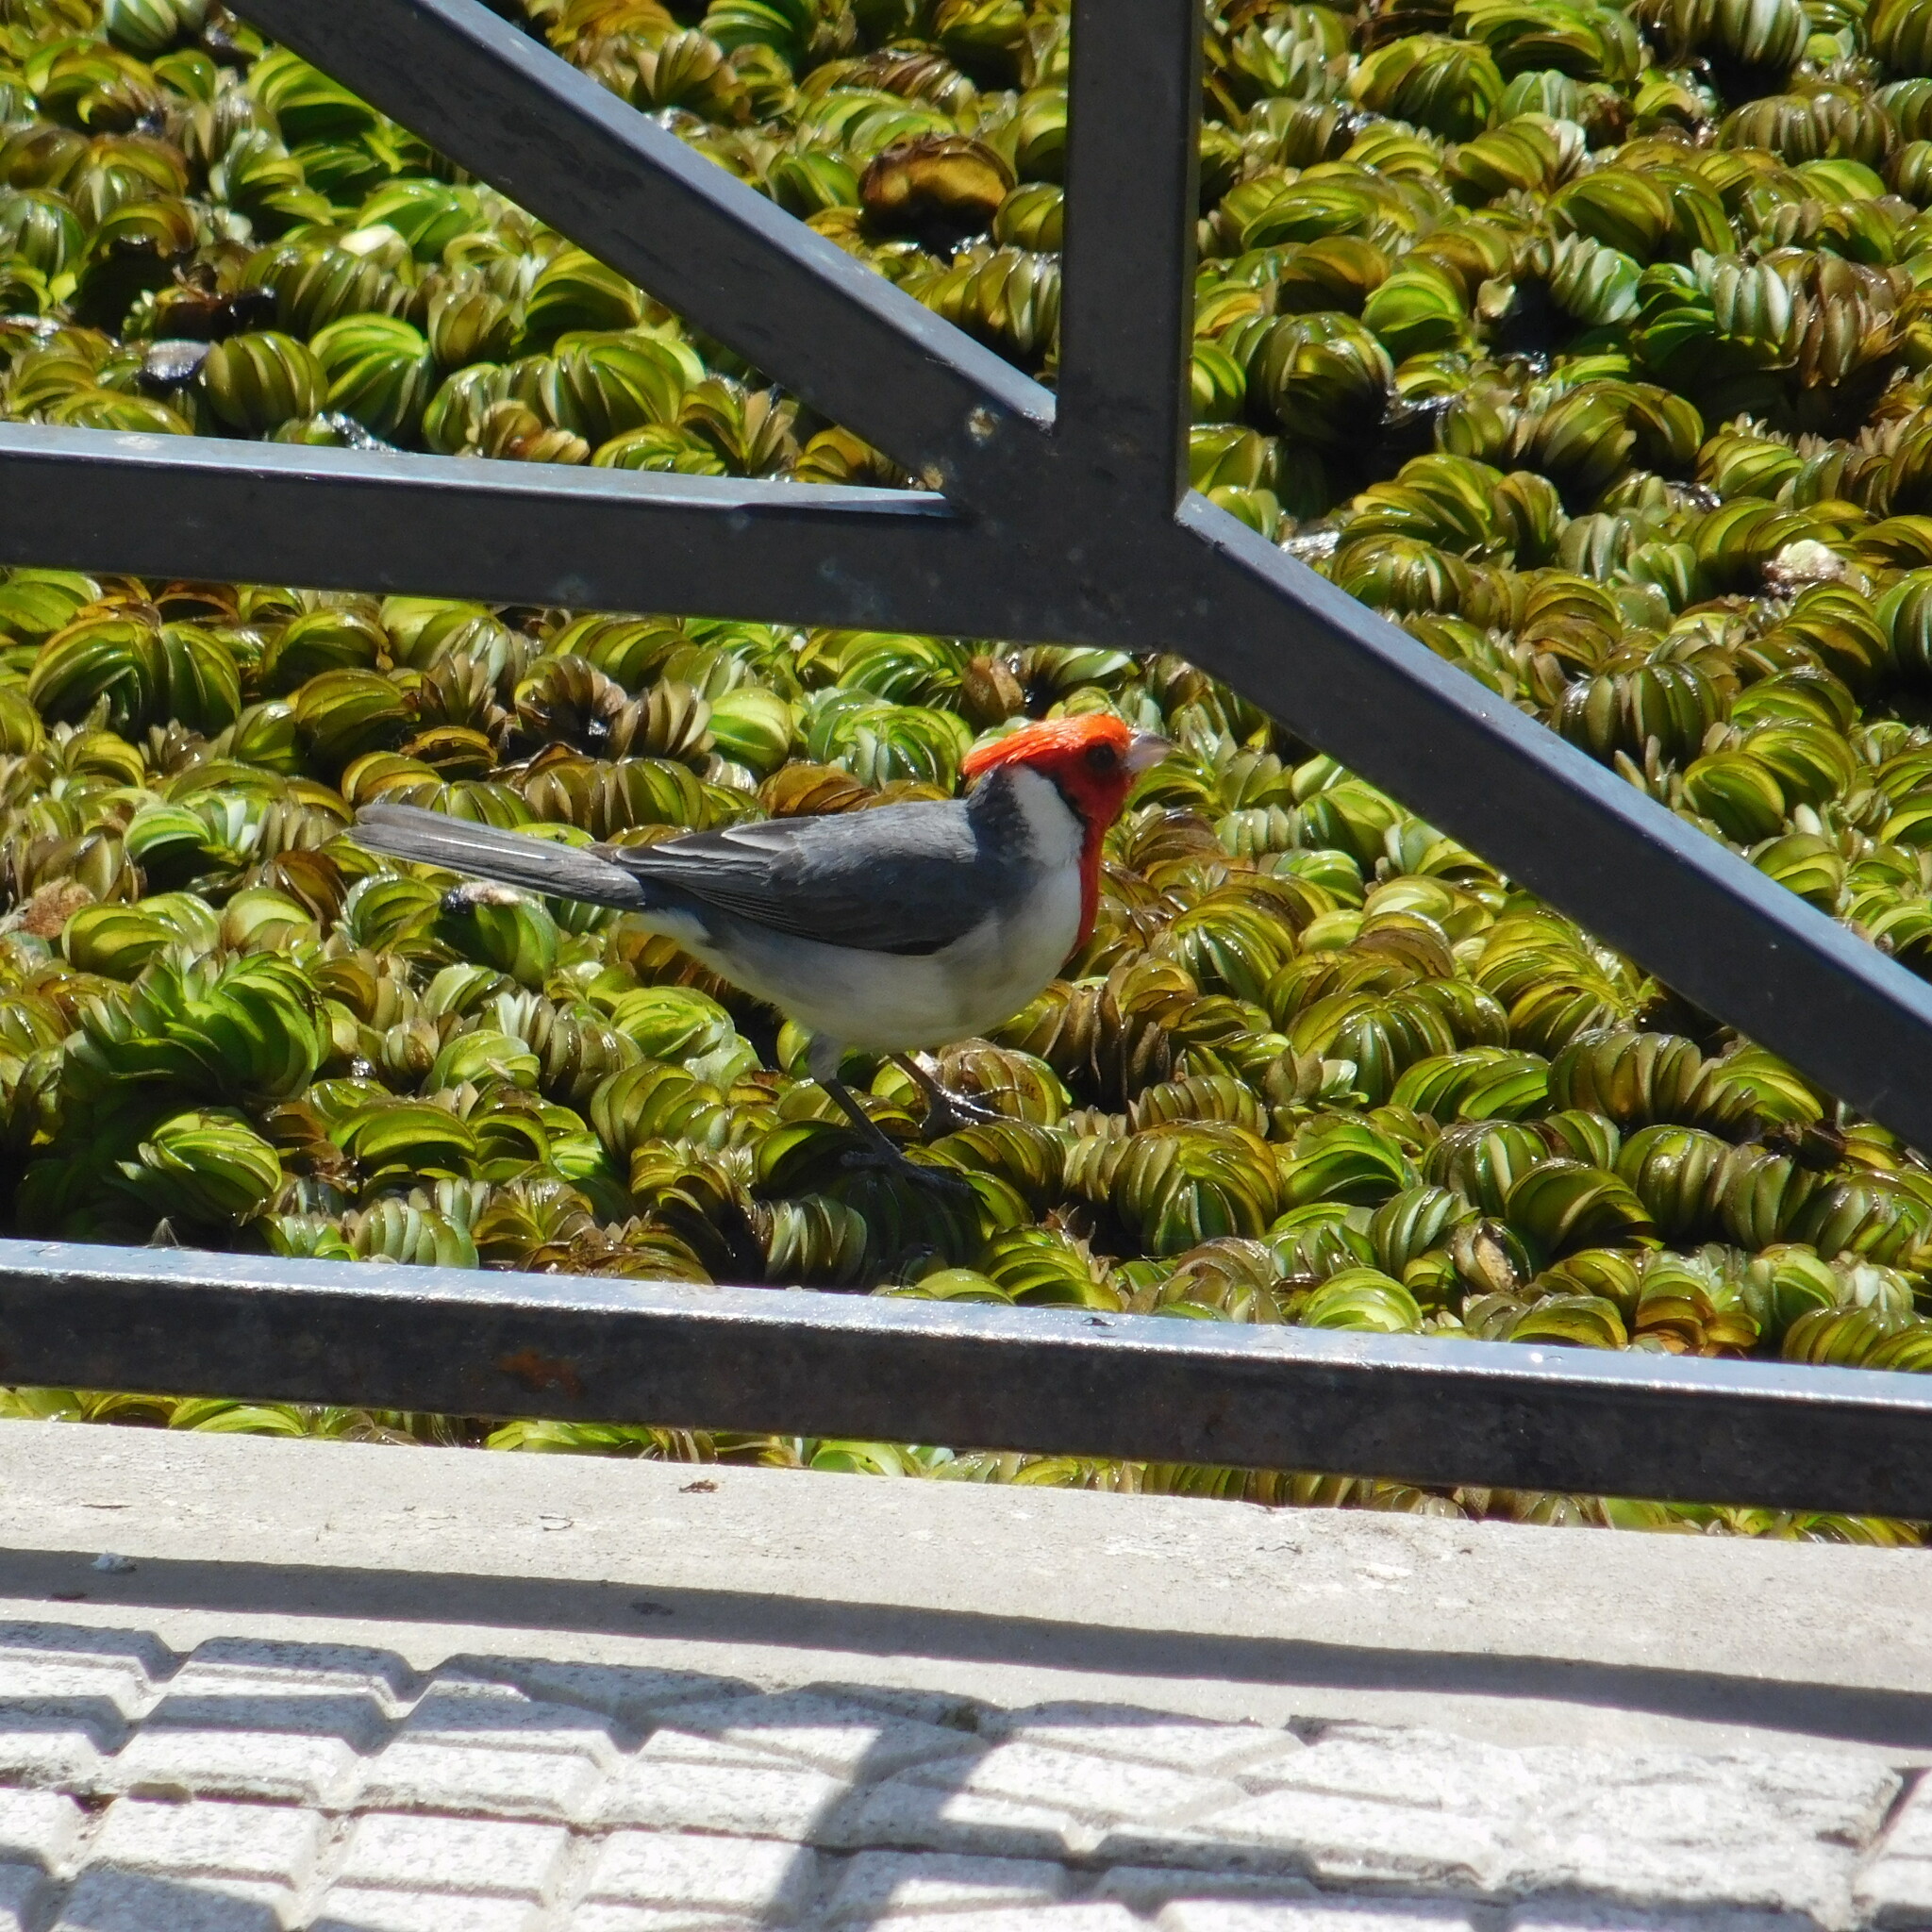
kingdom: Animalia
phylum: Chordata
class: Aves
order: Passeriformes
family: Thraupidae
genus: Paroaria
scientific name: Paroaria coronata
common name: Red-crested cardinal
